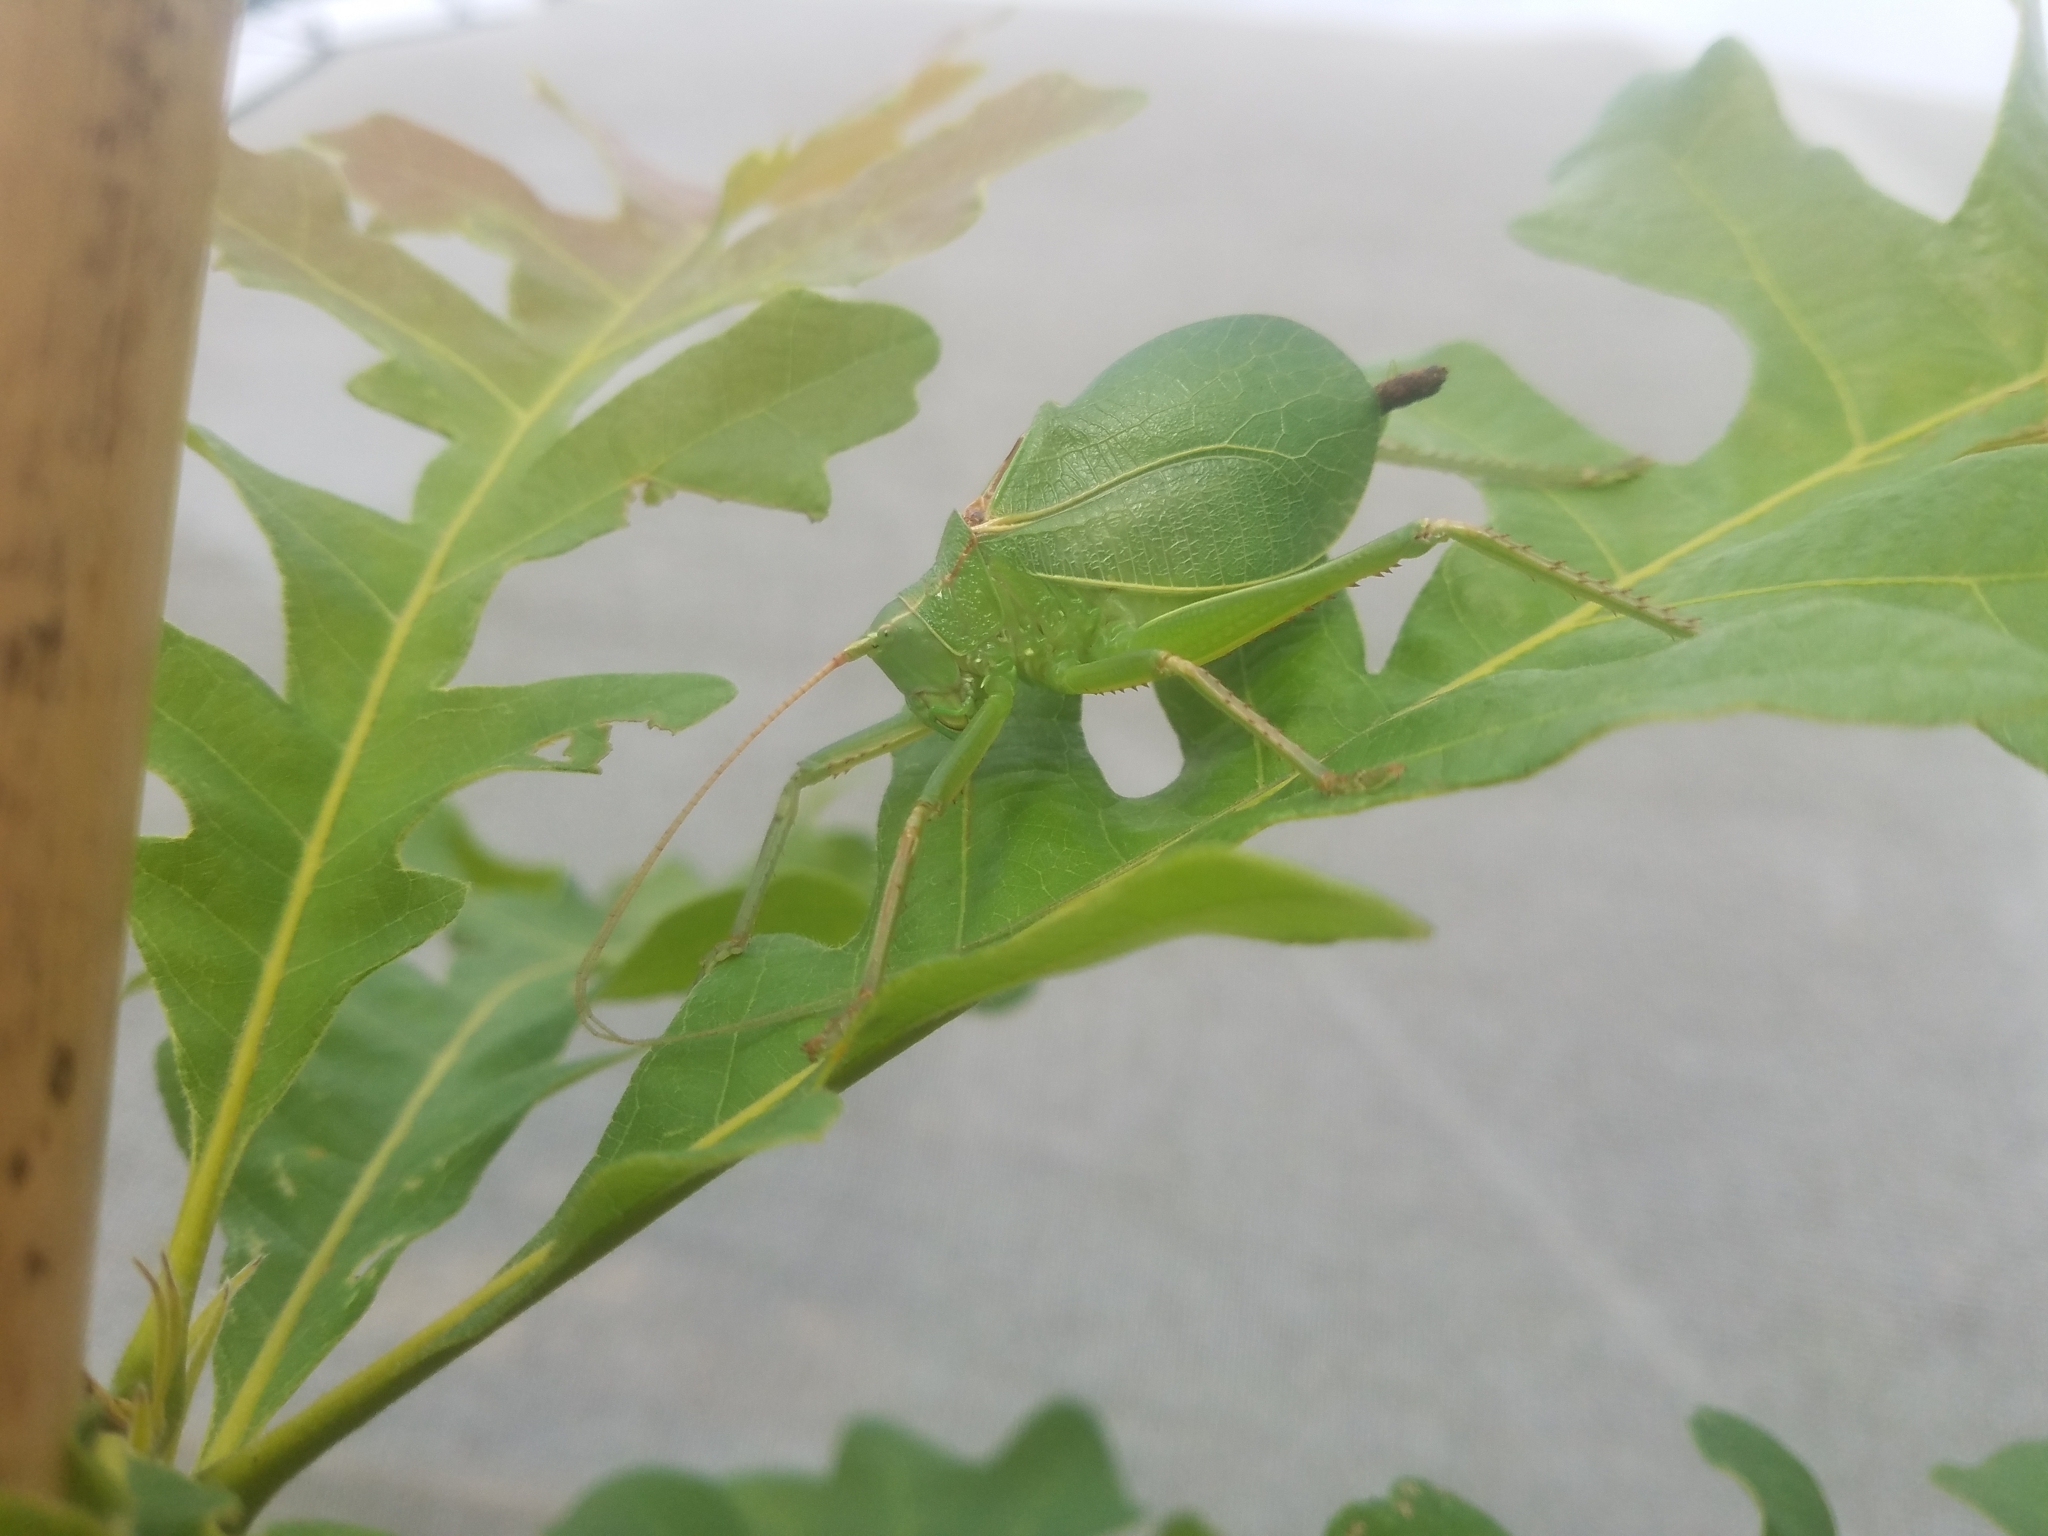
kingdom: Animalia
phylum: Arthropoda
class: Insecta
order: Orthoptera
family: Tettigoniidae
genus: Paracyrtophyllus
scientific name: Paracyrtophyllus robustus
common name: Central texas leaf katydid
